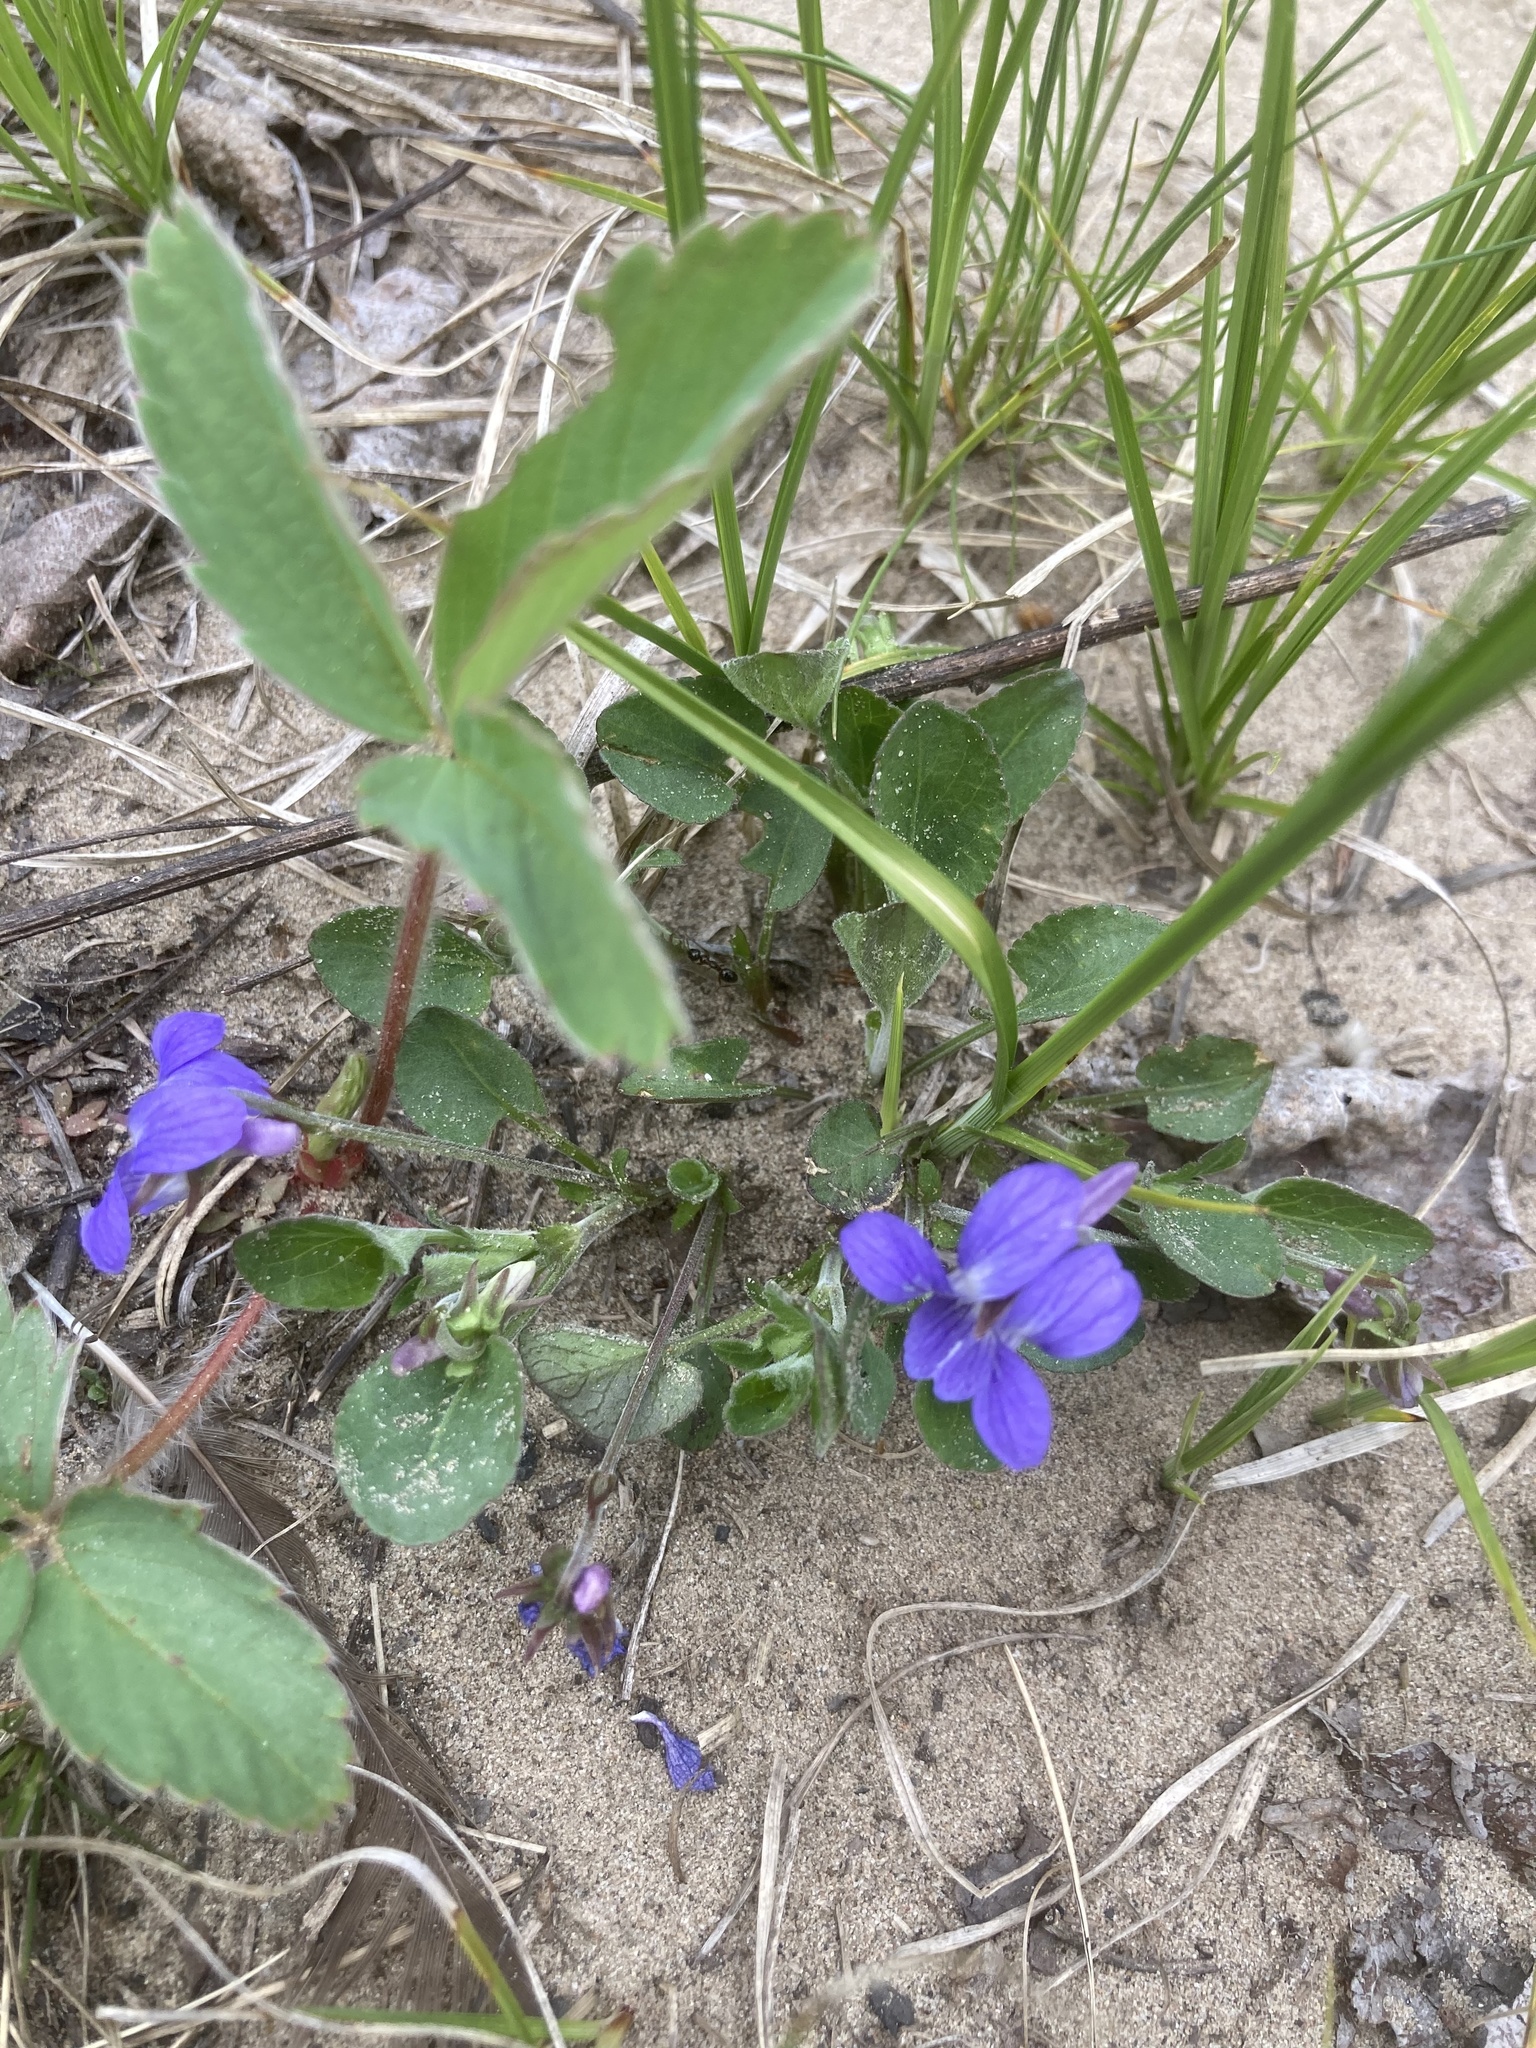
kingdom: Plantae
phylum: Tracheophyta
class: Magnoliopsida
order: Malpighiales
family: Violaceae
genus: Viola
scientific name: Viola adunca
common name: Sand violet
